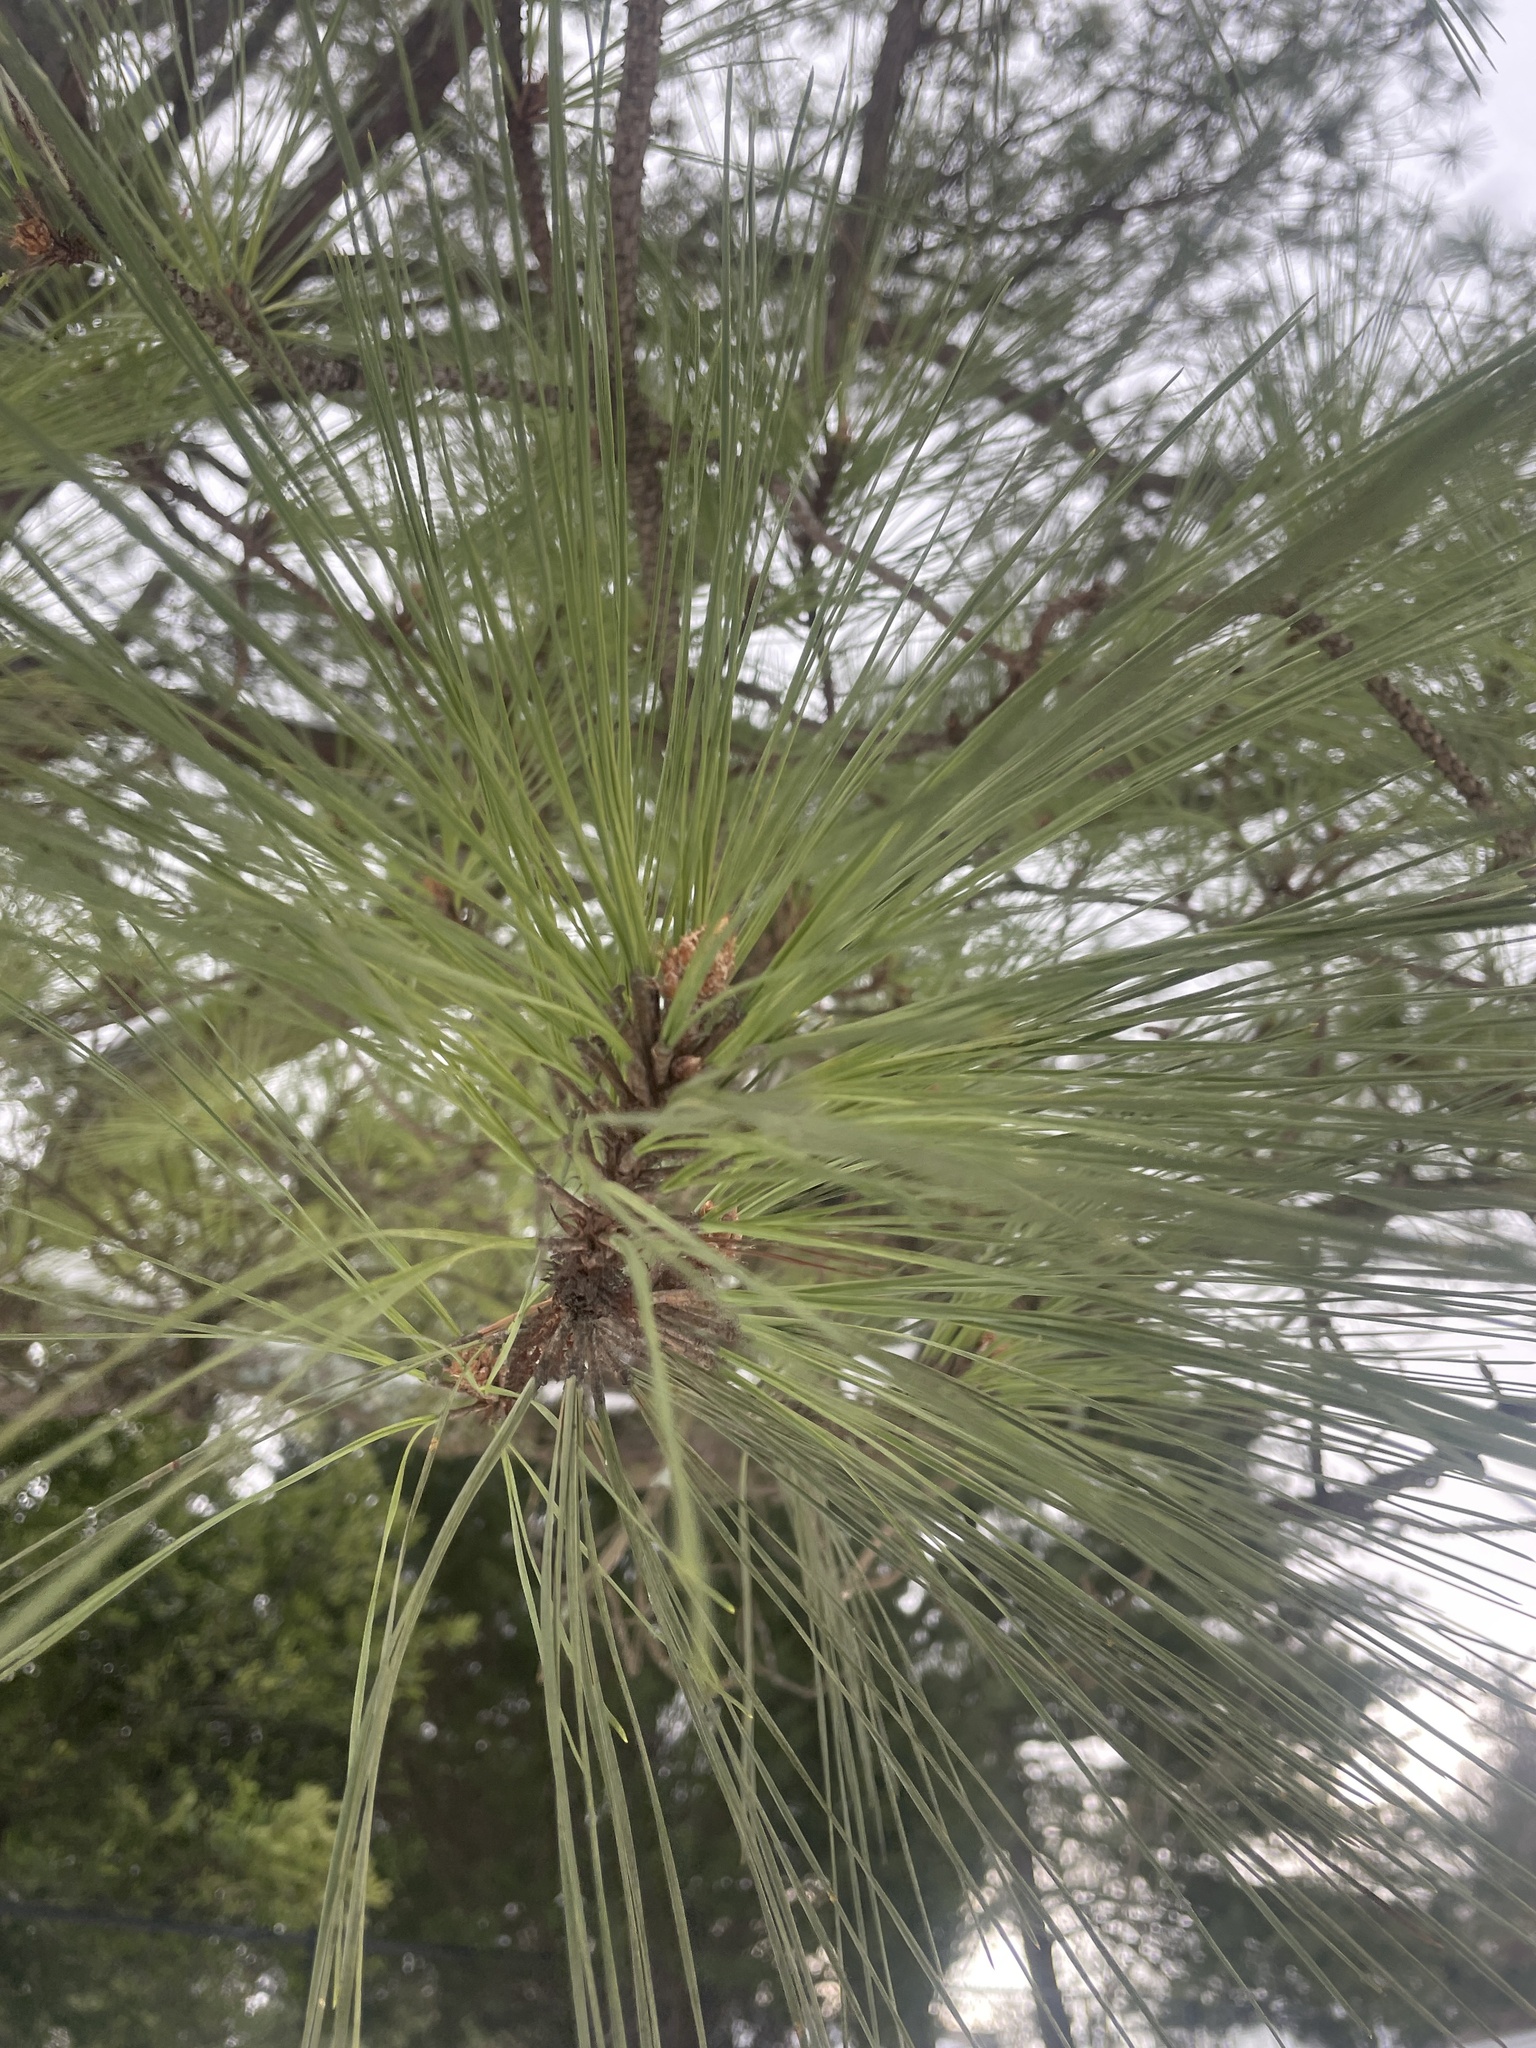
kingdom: Plantae
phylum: Tracheophyta
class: Pinopsida
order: Pinales
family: Pinaceae
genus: Pinus
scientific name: Pinus taeda
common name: Loblolly pine
